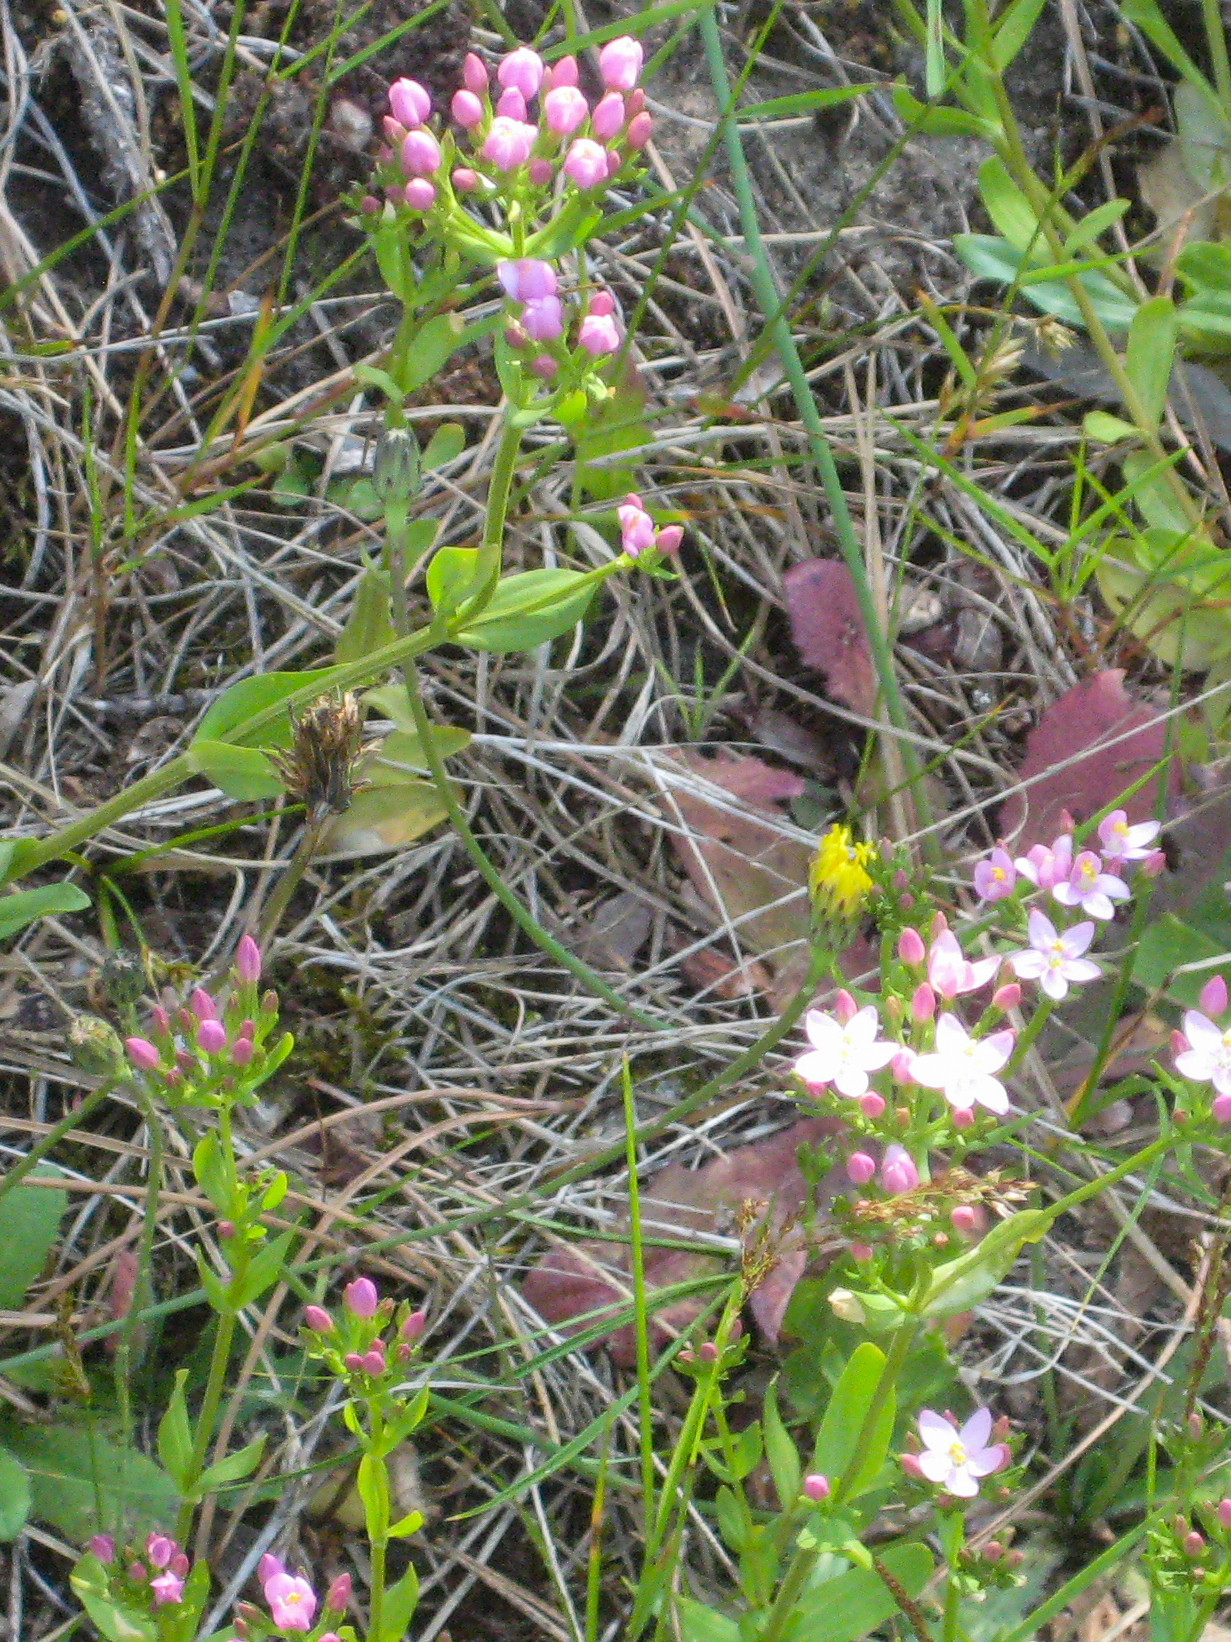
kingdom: Plantae
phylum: Tracheophyta
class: Magnoliopsida
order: Gentianales
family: Gentianaceae
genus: Centaurium
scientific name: Centaurium erythraea
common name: Common centaury
